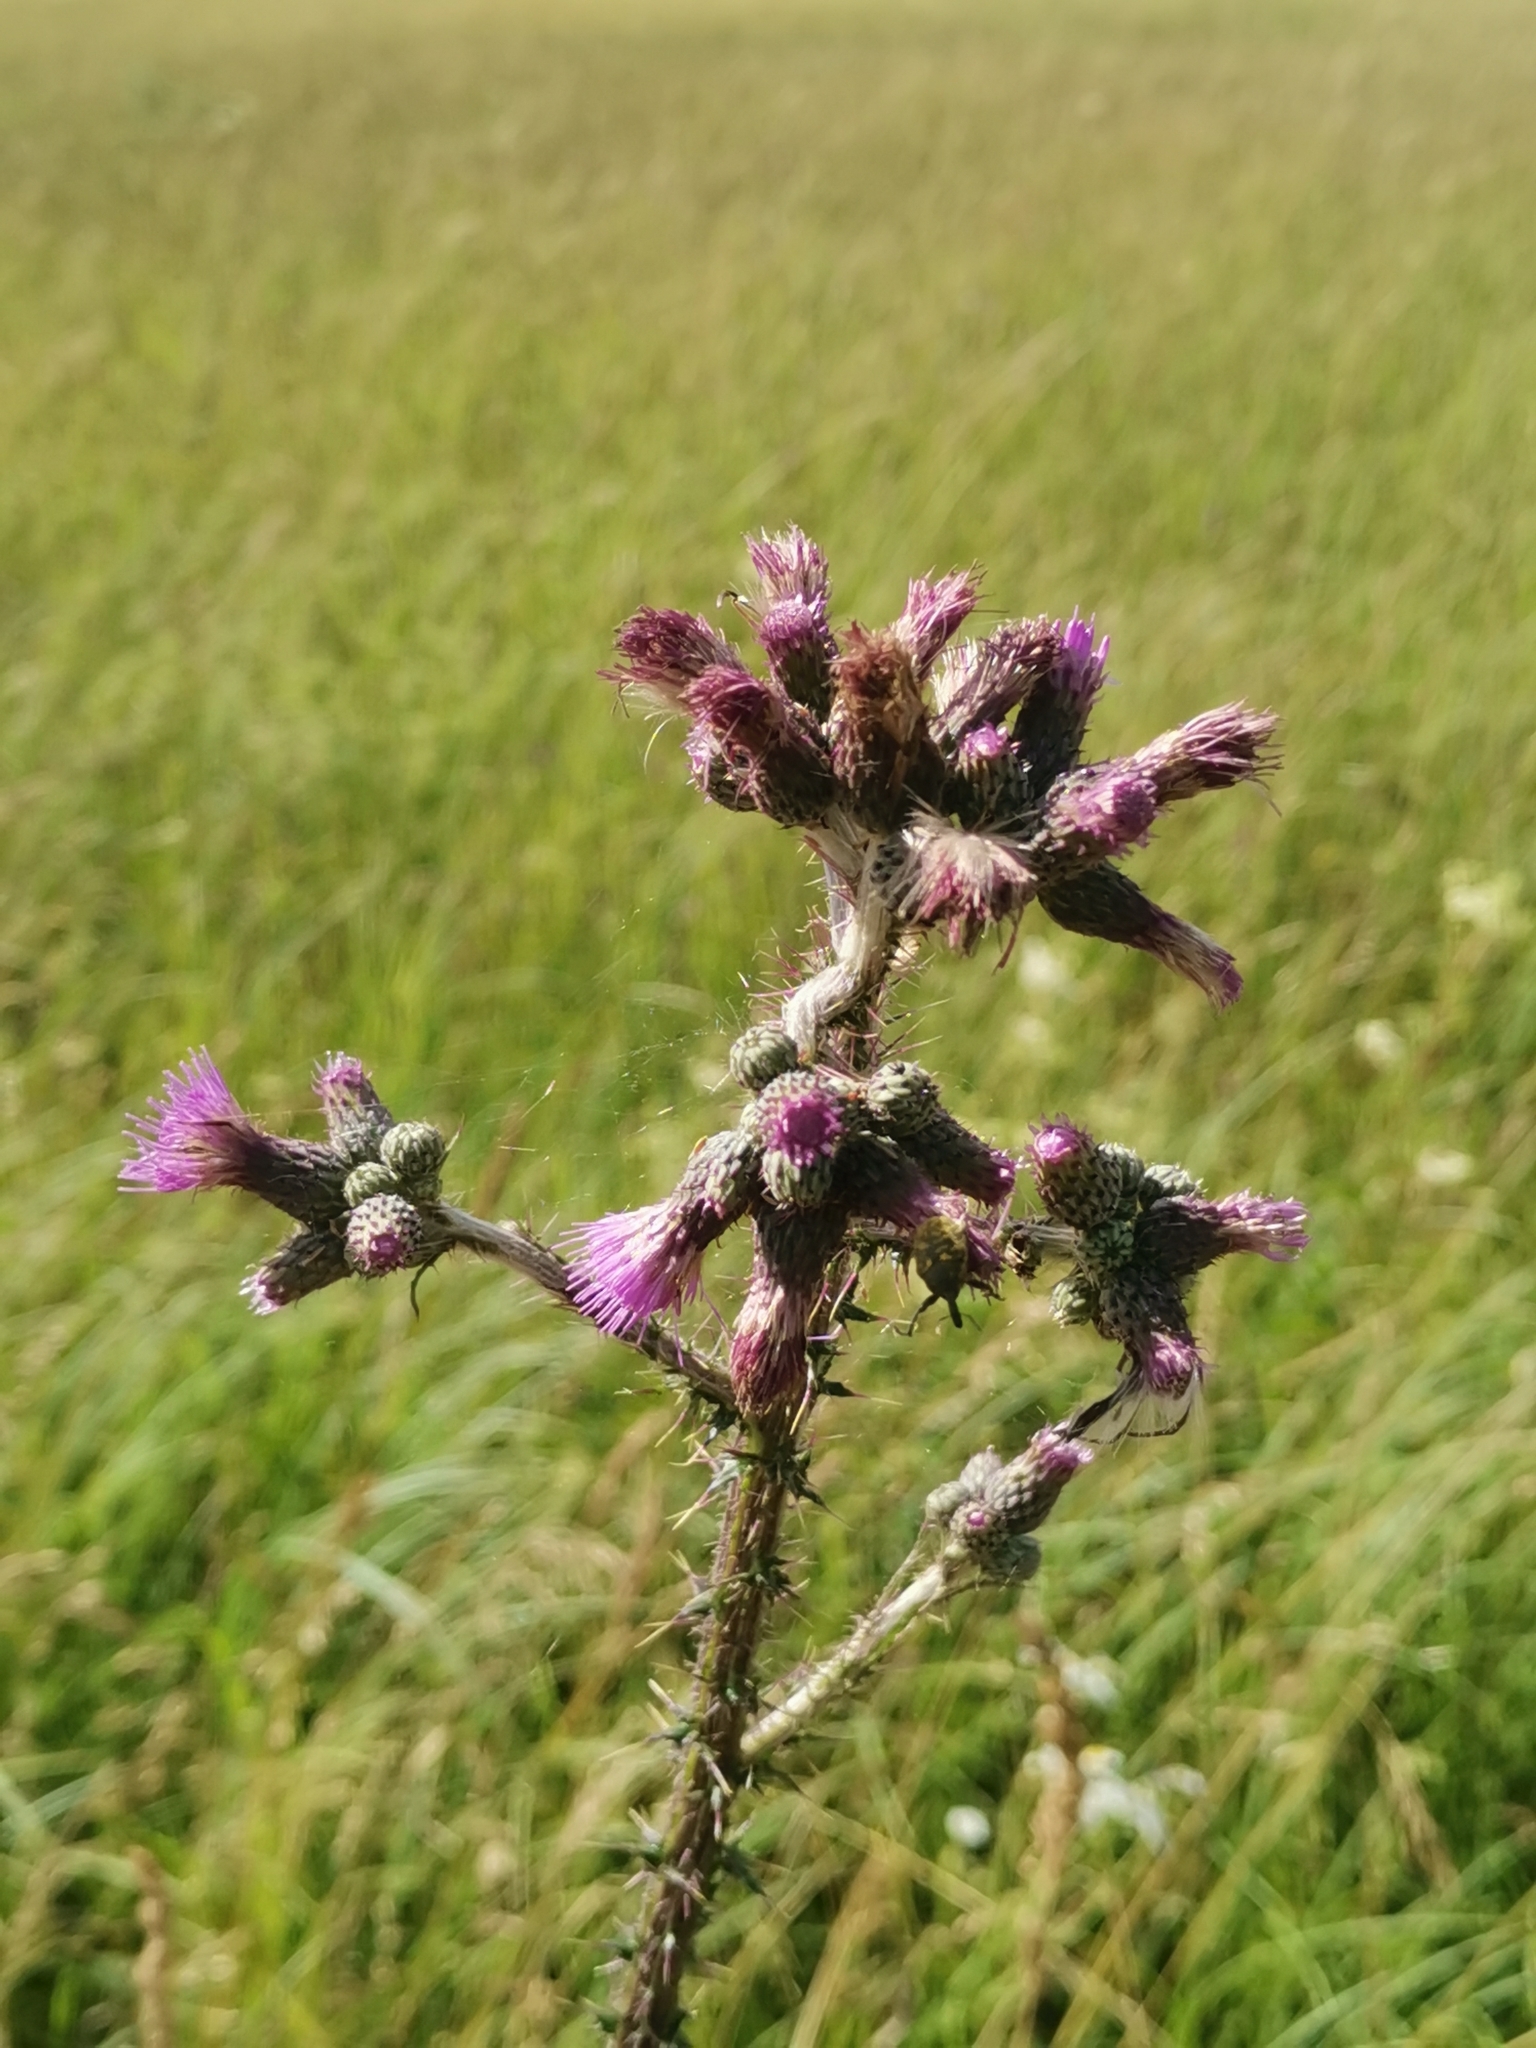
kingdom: Plantae
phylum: Tracheophyta
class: Magnoliopsida
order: Asterales
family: Asteraceae
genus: Cirsium
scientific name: Cirsium palustre
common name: Marsh thistle
